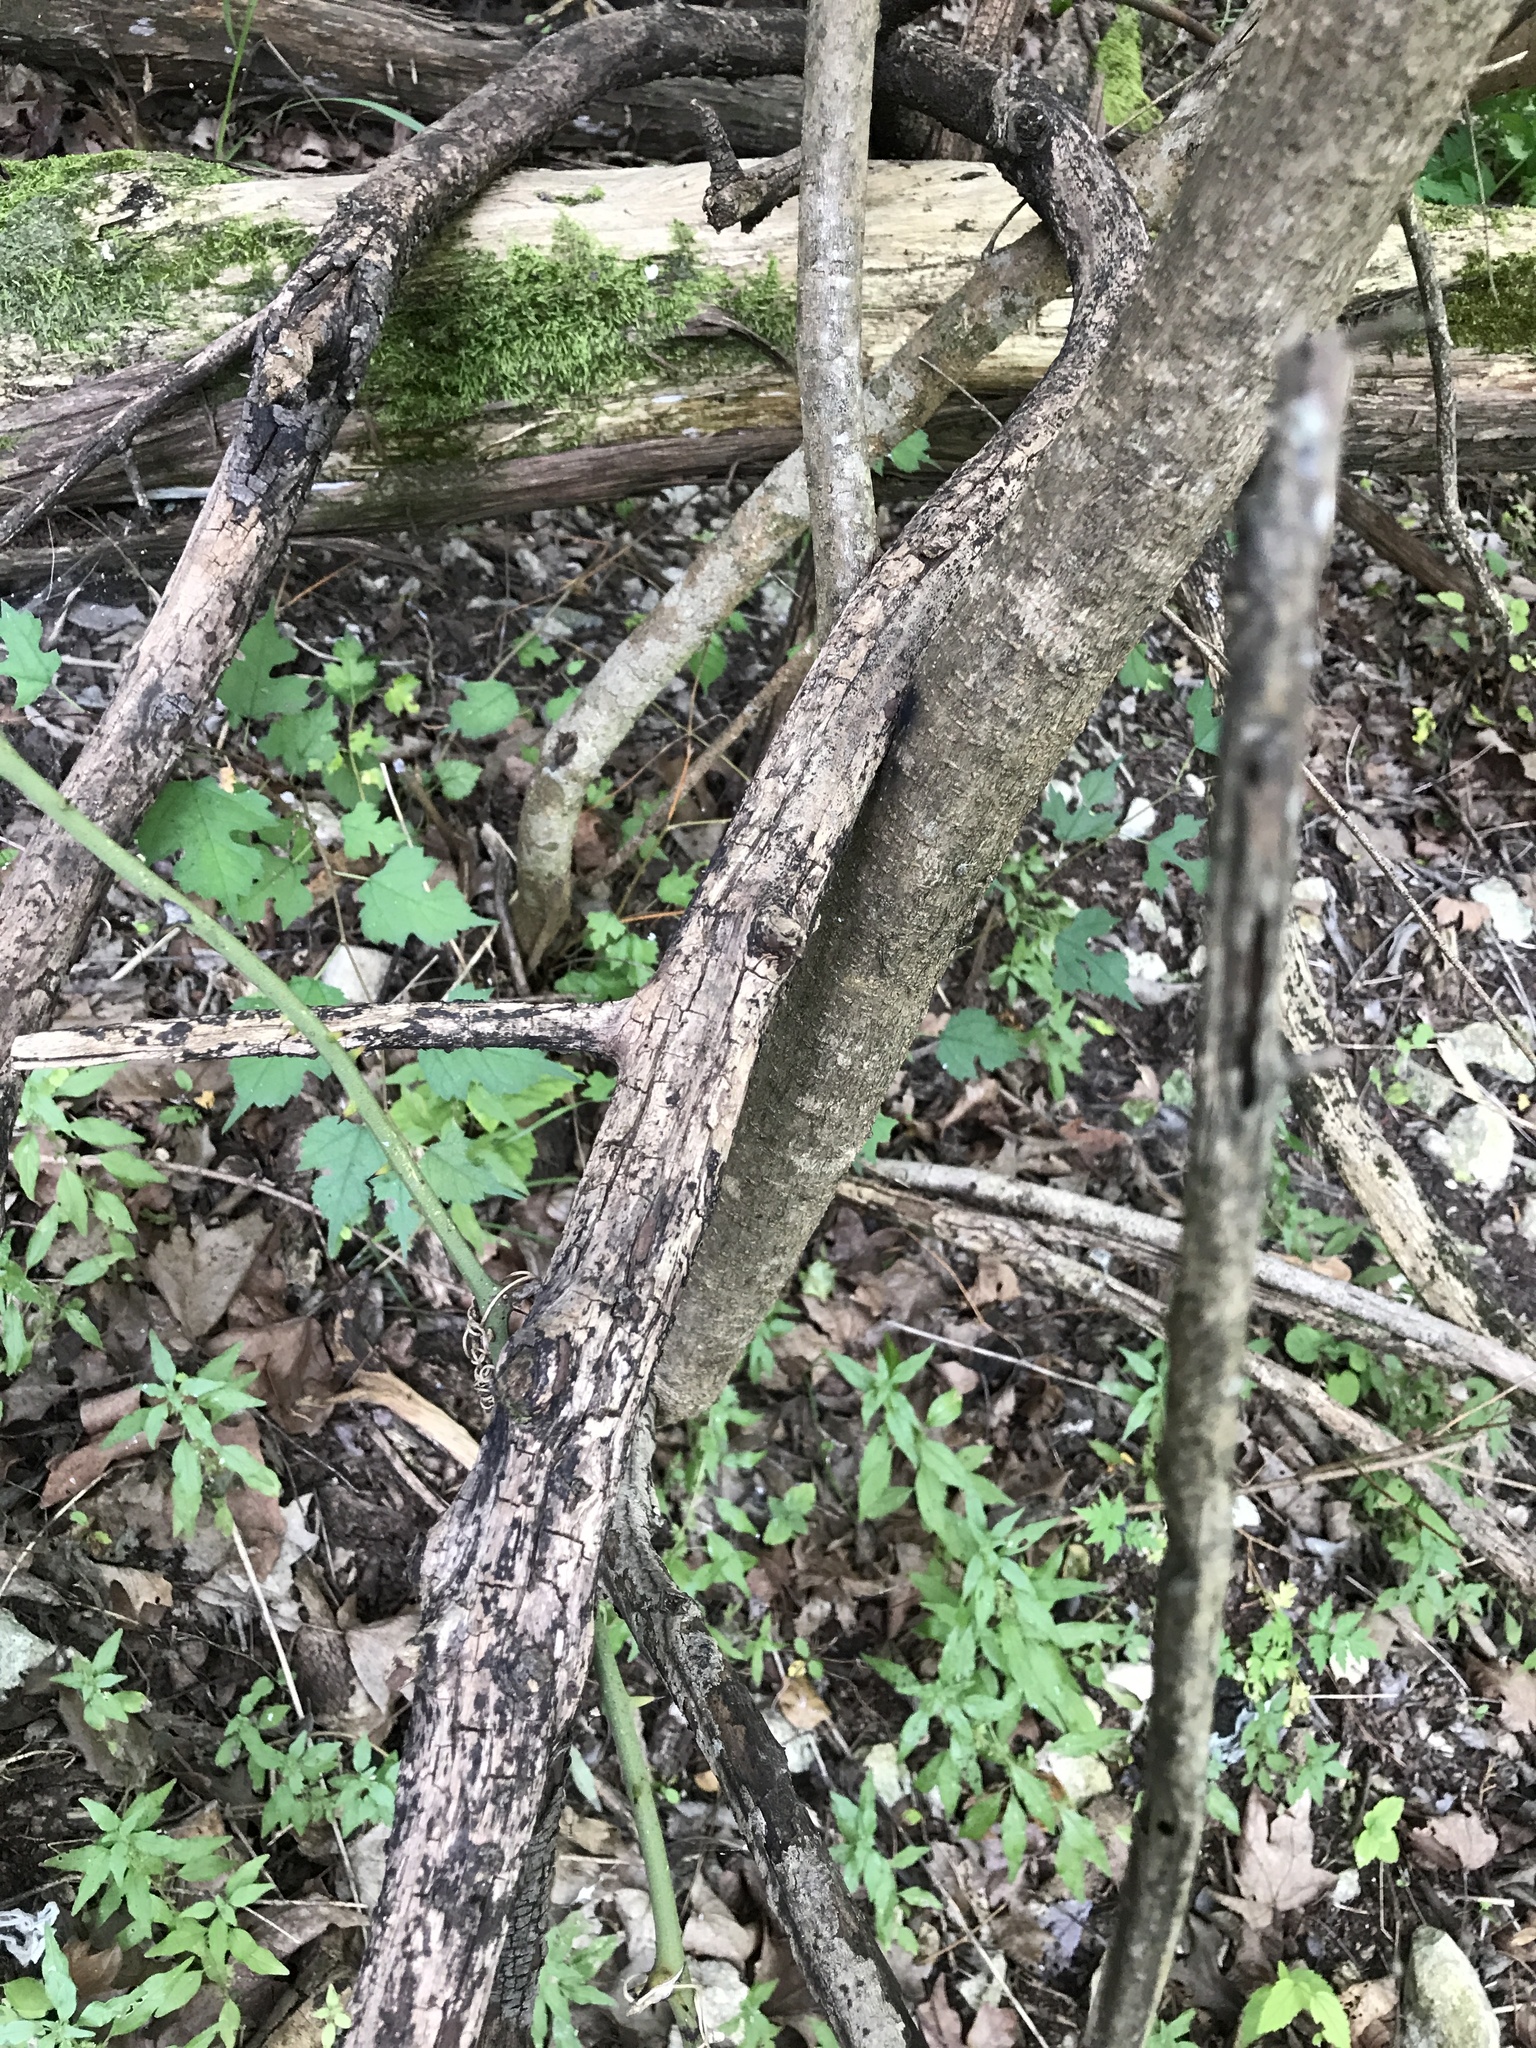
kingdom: Plantae
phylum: Tracheophyta
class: Magnoliopsida
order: Rosales
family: Moraceae
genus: Morus
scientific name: Morus microphylla
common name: Mexican mulberry
